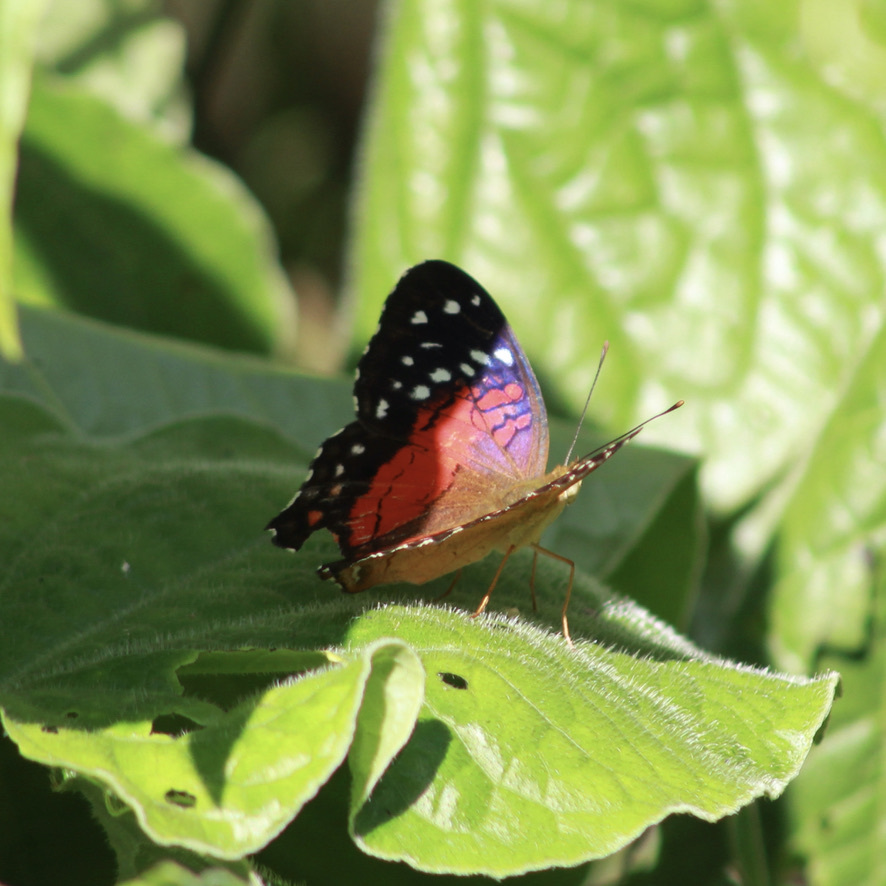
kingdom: Animalia
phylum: Arthropoda
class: Insecta
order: Lepidoptera
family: Nymphalidae
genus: Anartia
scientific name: Anartia amathea
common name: Red peacock
